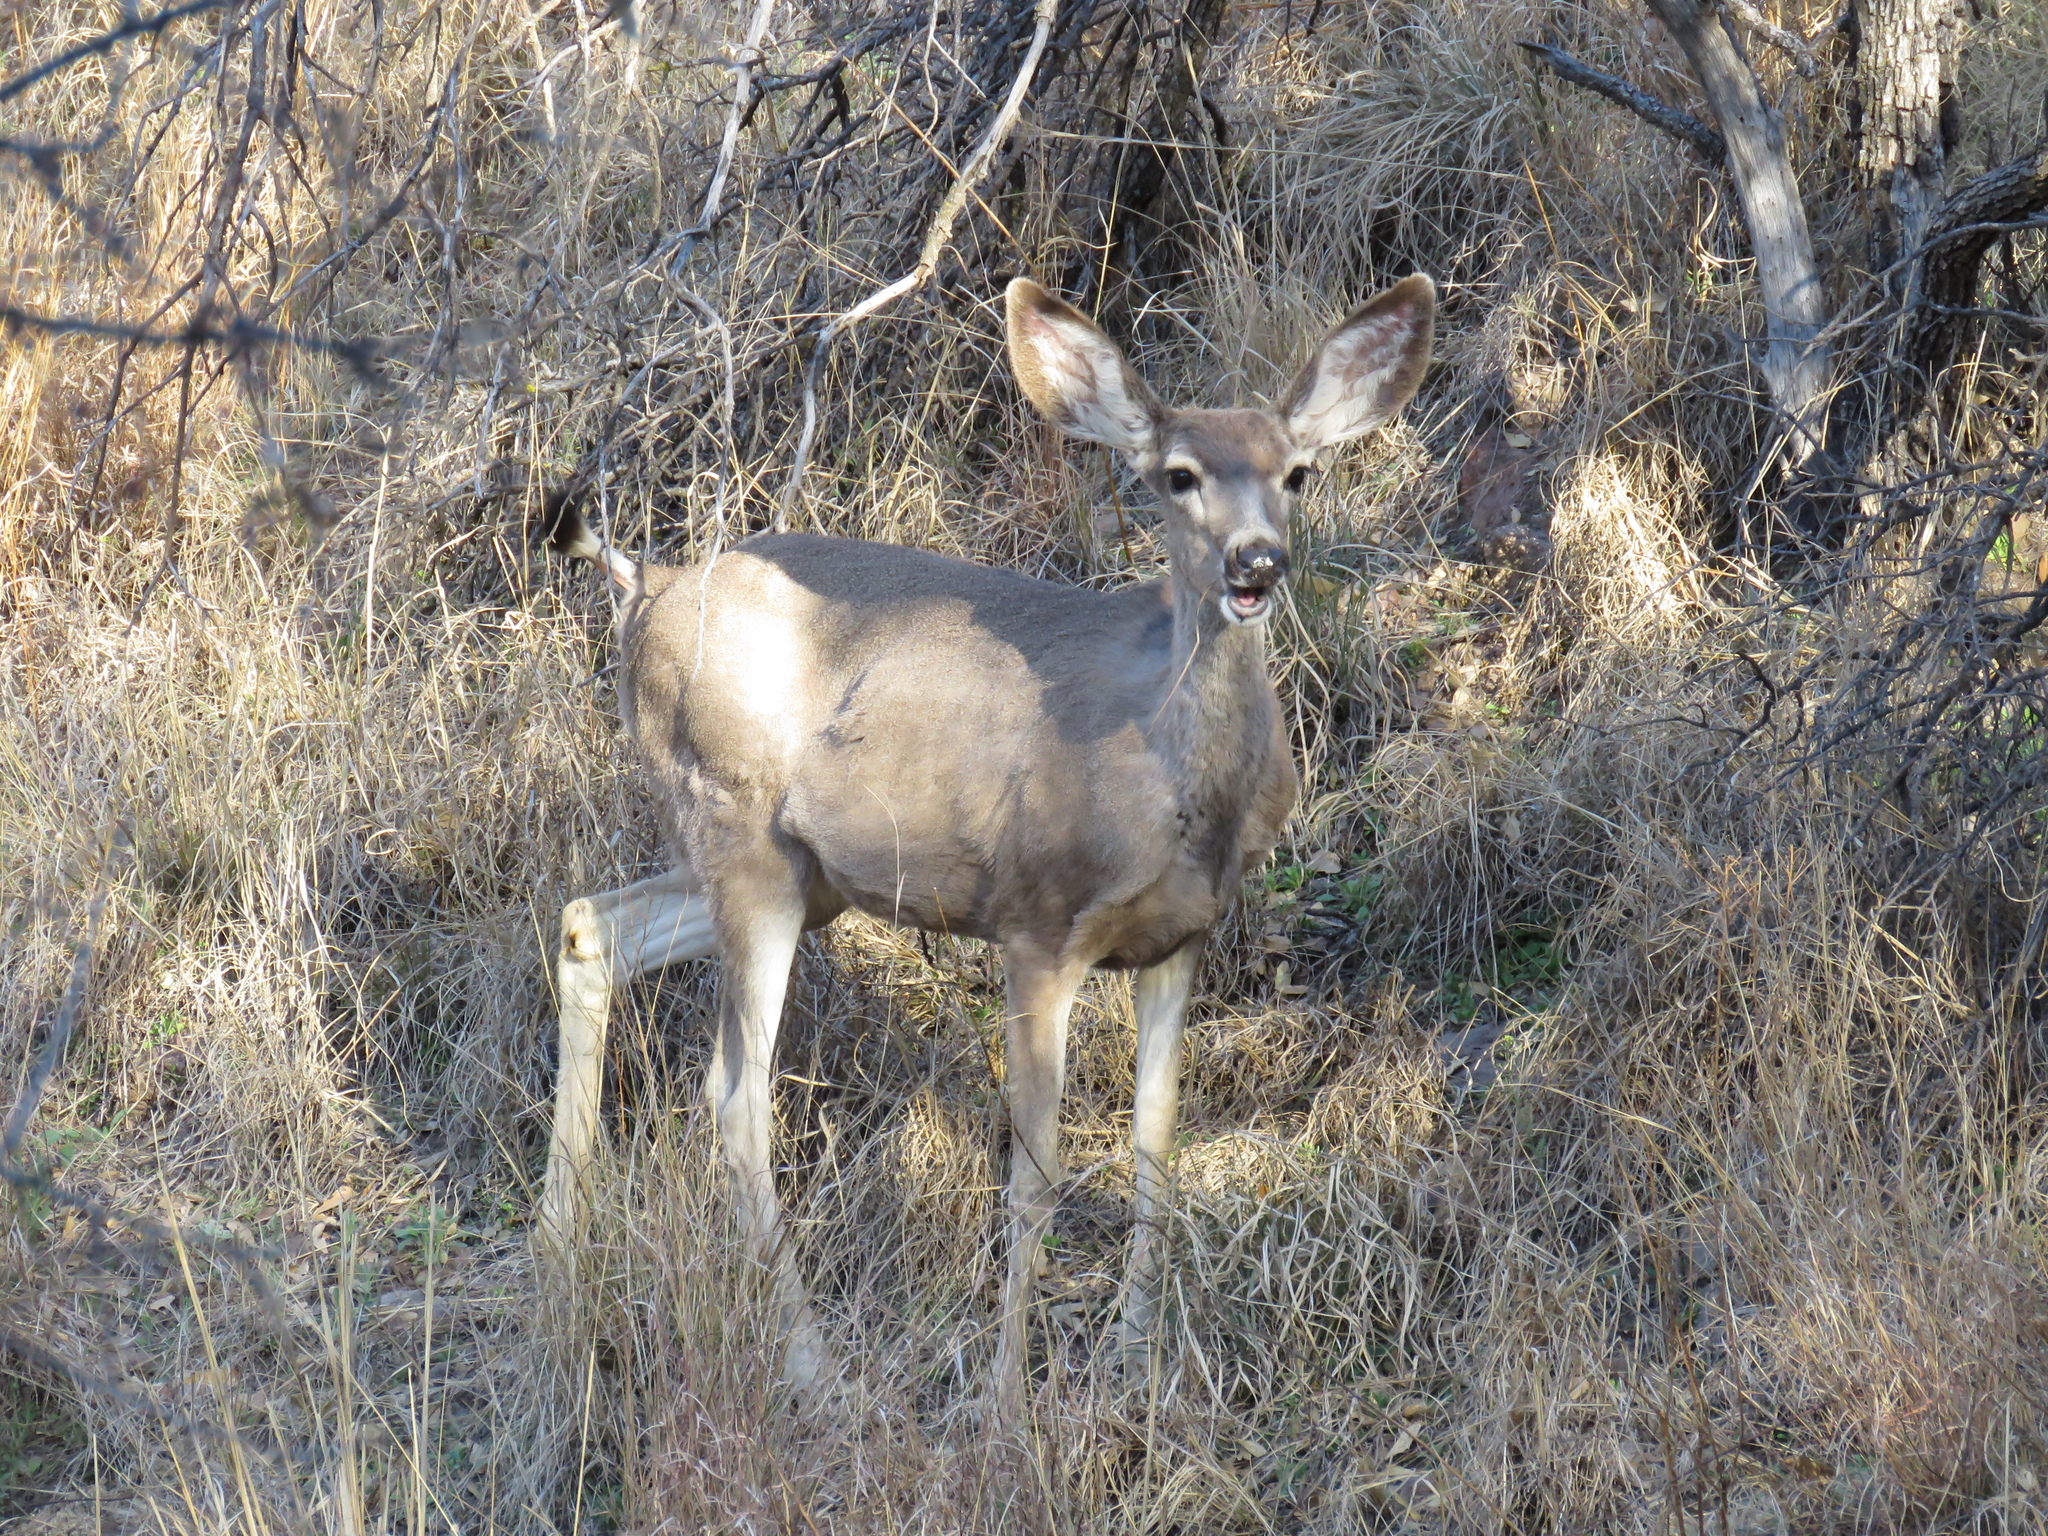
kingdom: Animalia
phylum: Chordata
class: Mammalia
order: Artiodactyla
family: Cervidae
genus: Odocoileus
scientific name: Odocoileus hemionus
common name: Mule deer
